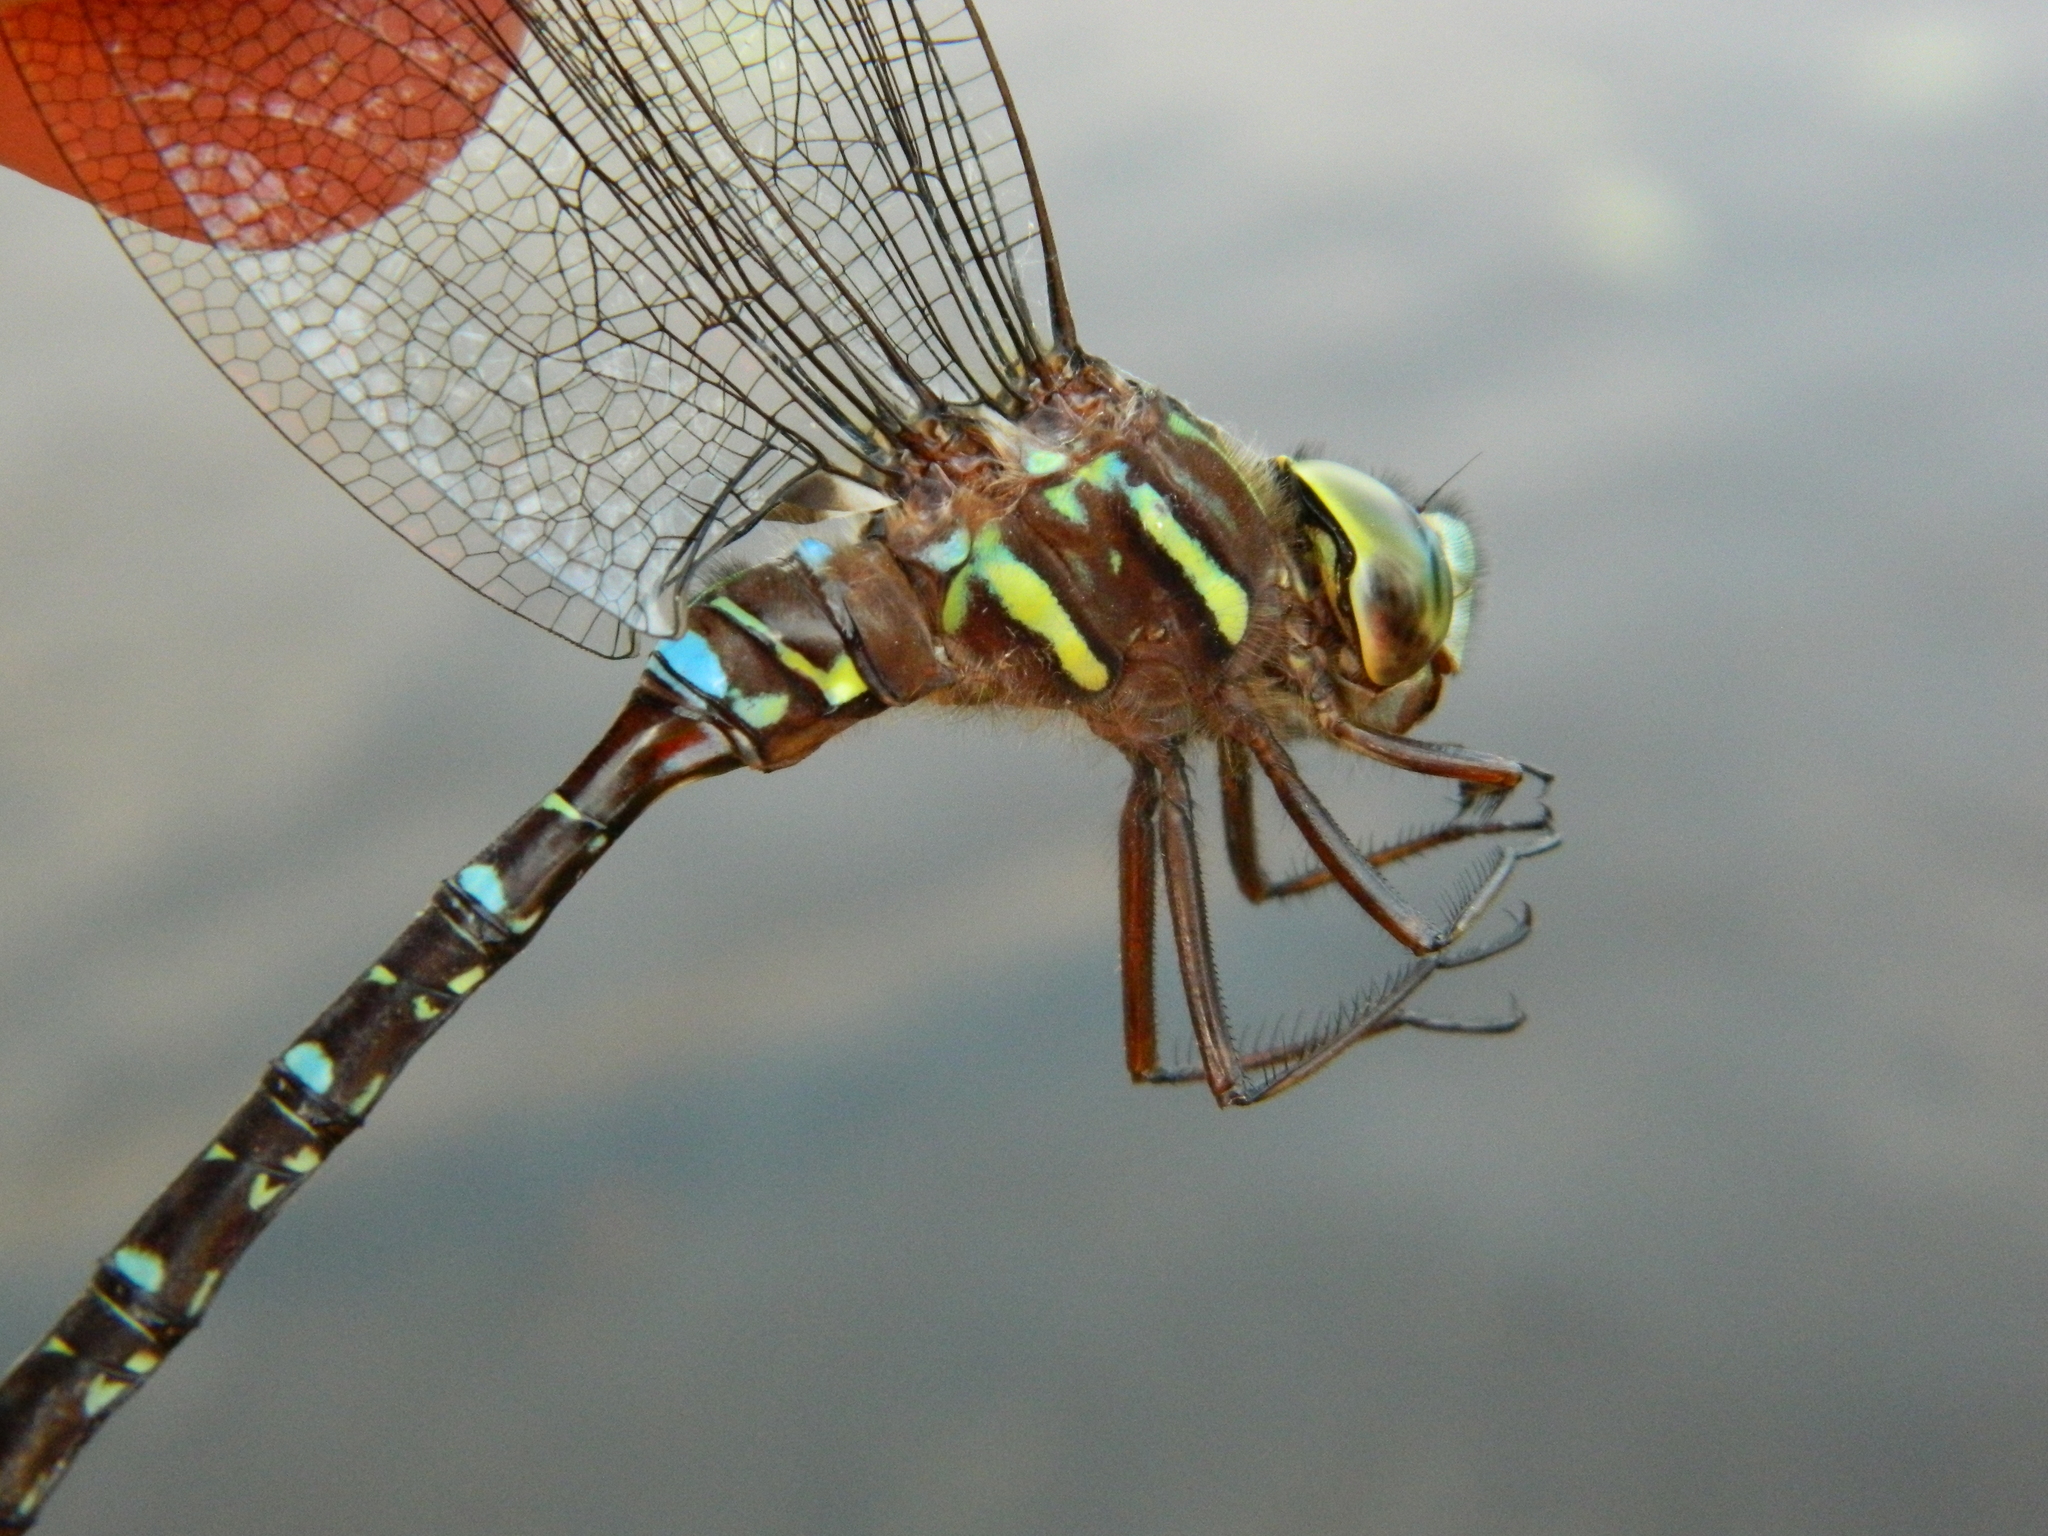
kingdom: Animalia
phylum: Arthropoda
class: Insecta
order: Odonata
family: Aeshnidae
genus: Aeshna
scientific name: Aeshna umbrosa
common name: Shadow darner
